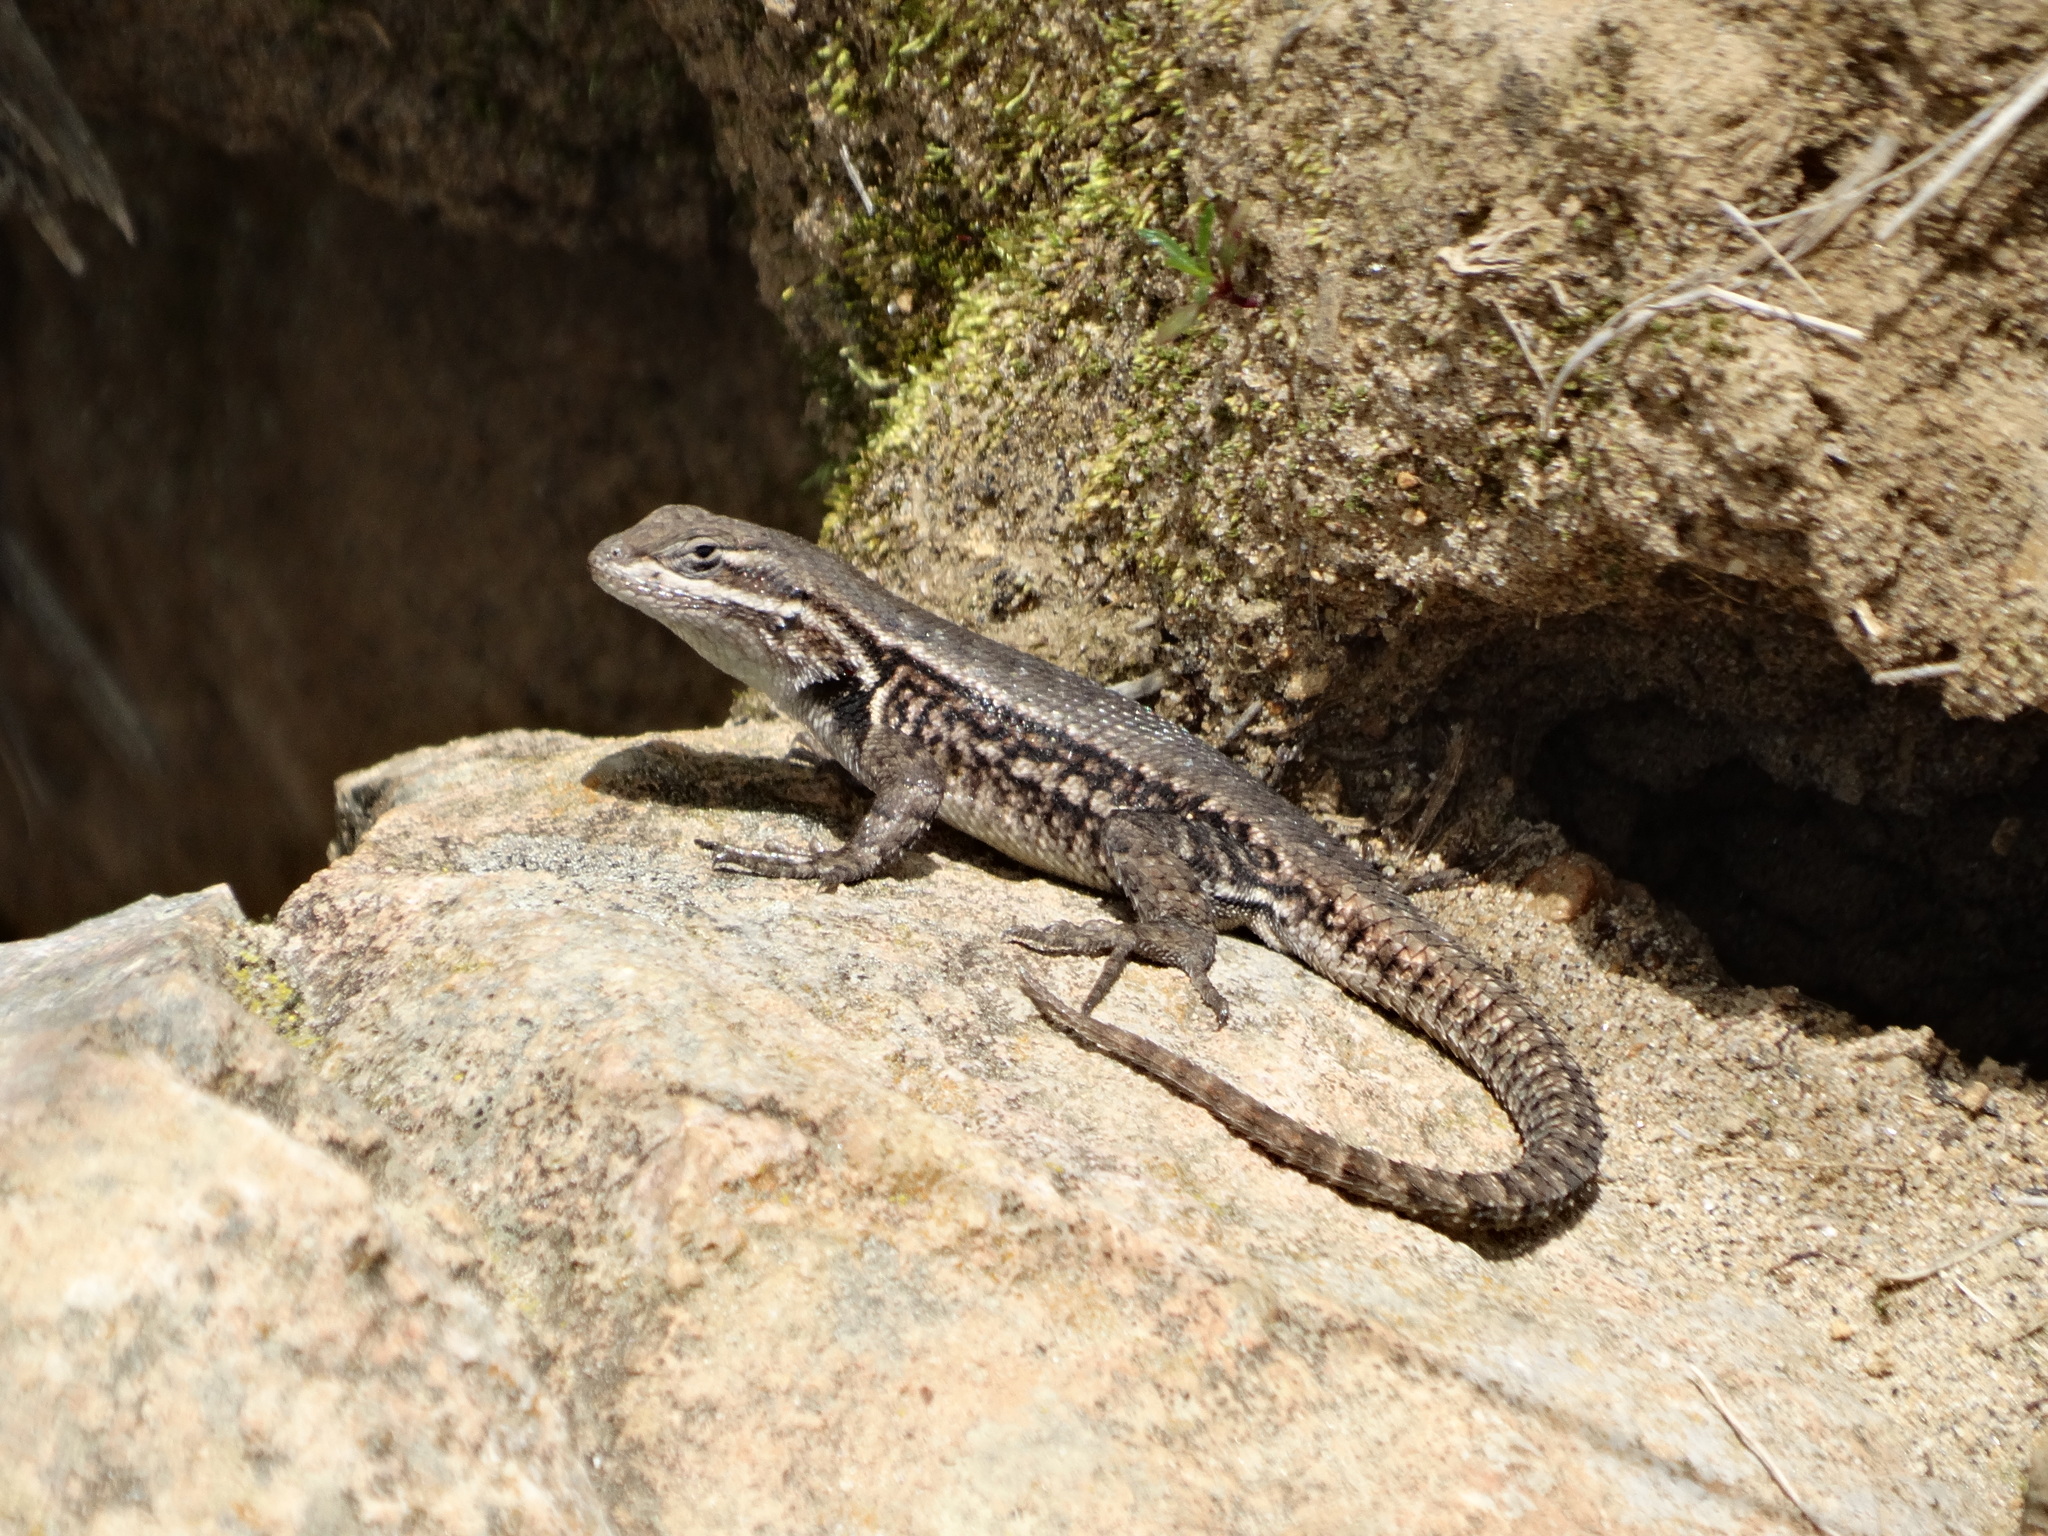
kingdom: Animalia
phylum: Chordata
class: Squamata
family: Phrynosomatidae
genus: Sceloporus
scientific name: Sceloporus megalepidurus
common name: Cursorial spiny lizard
